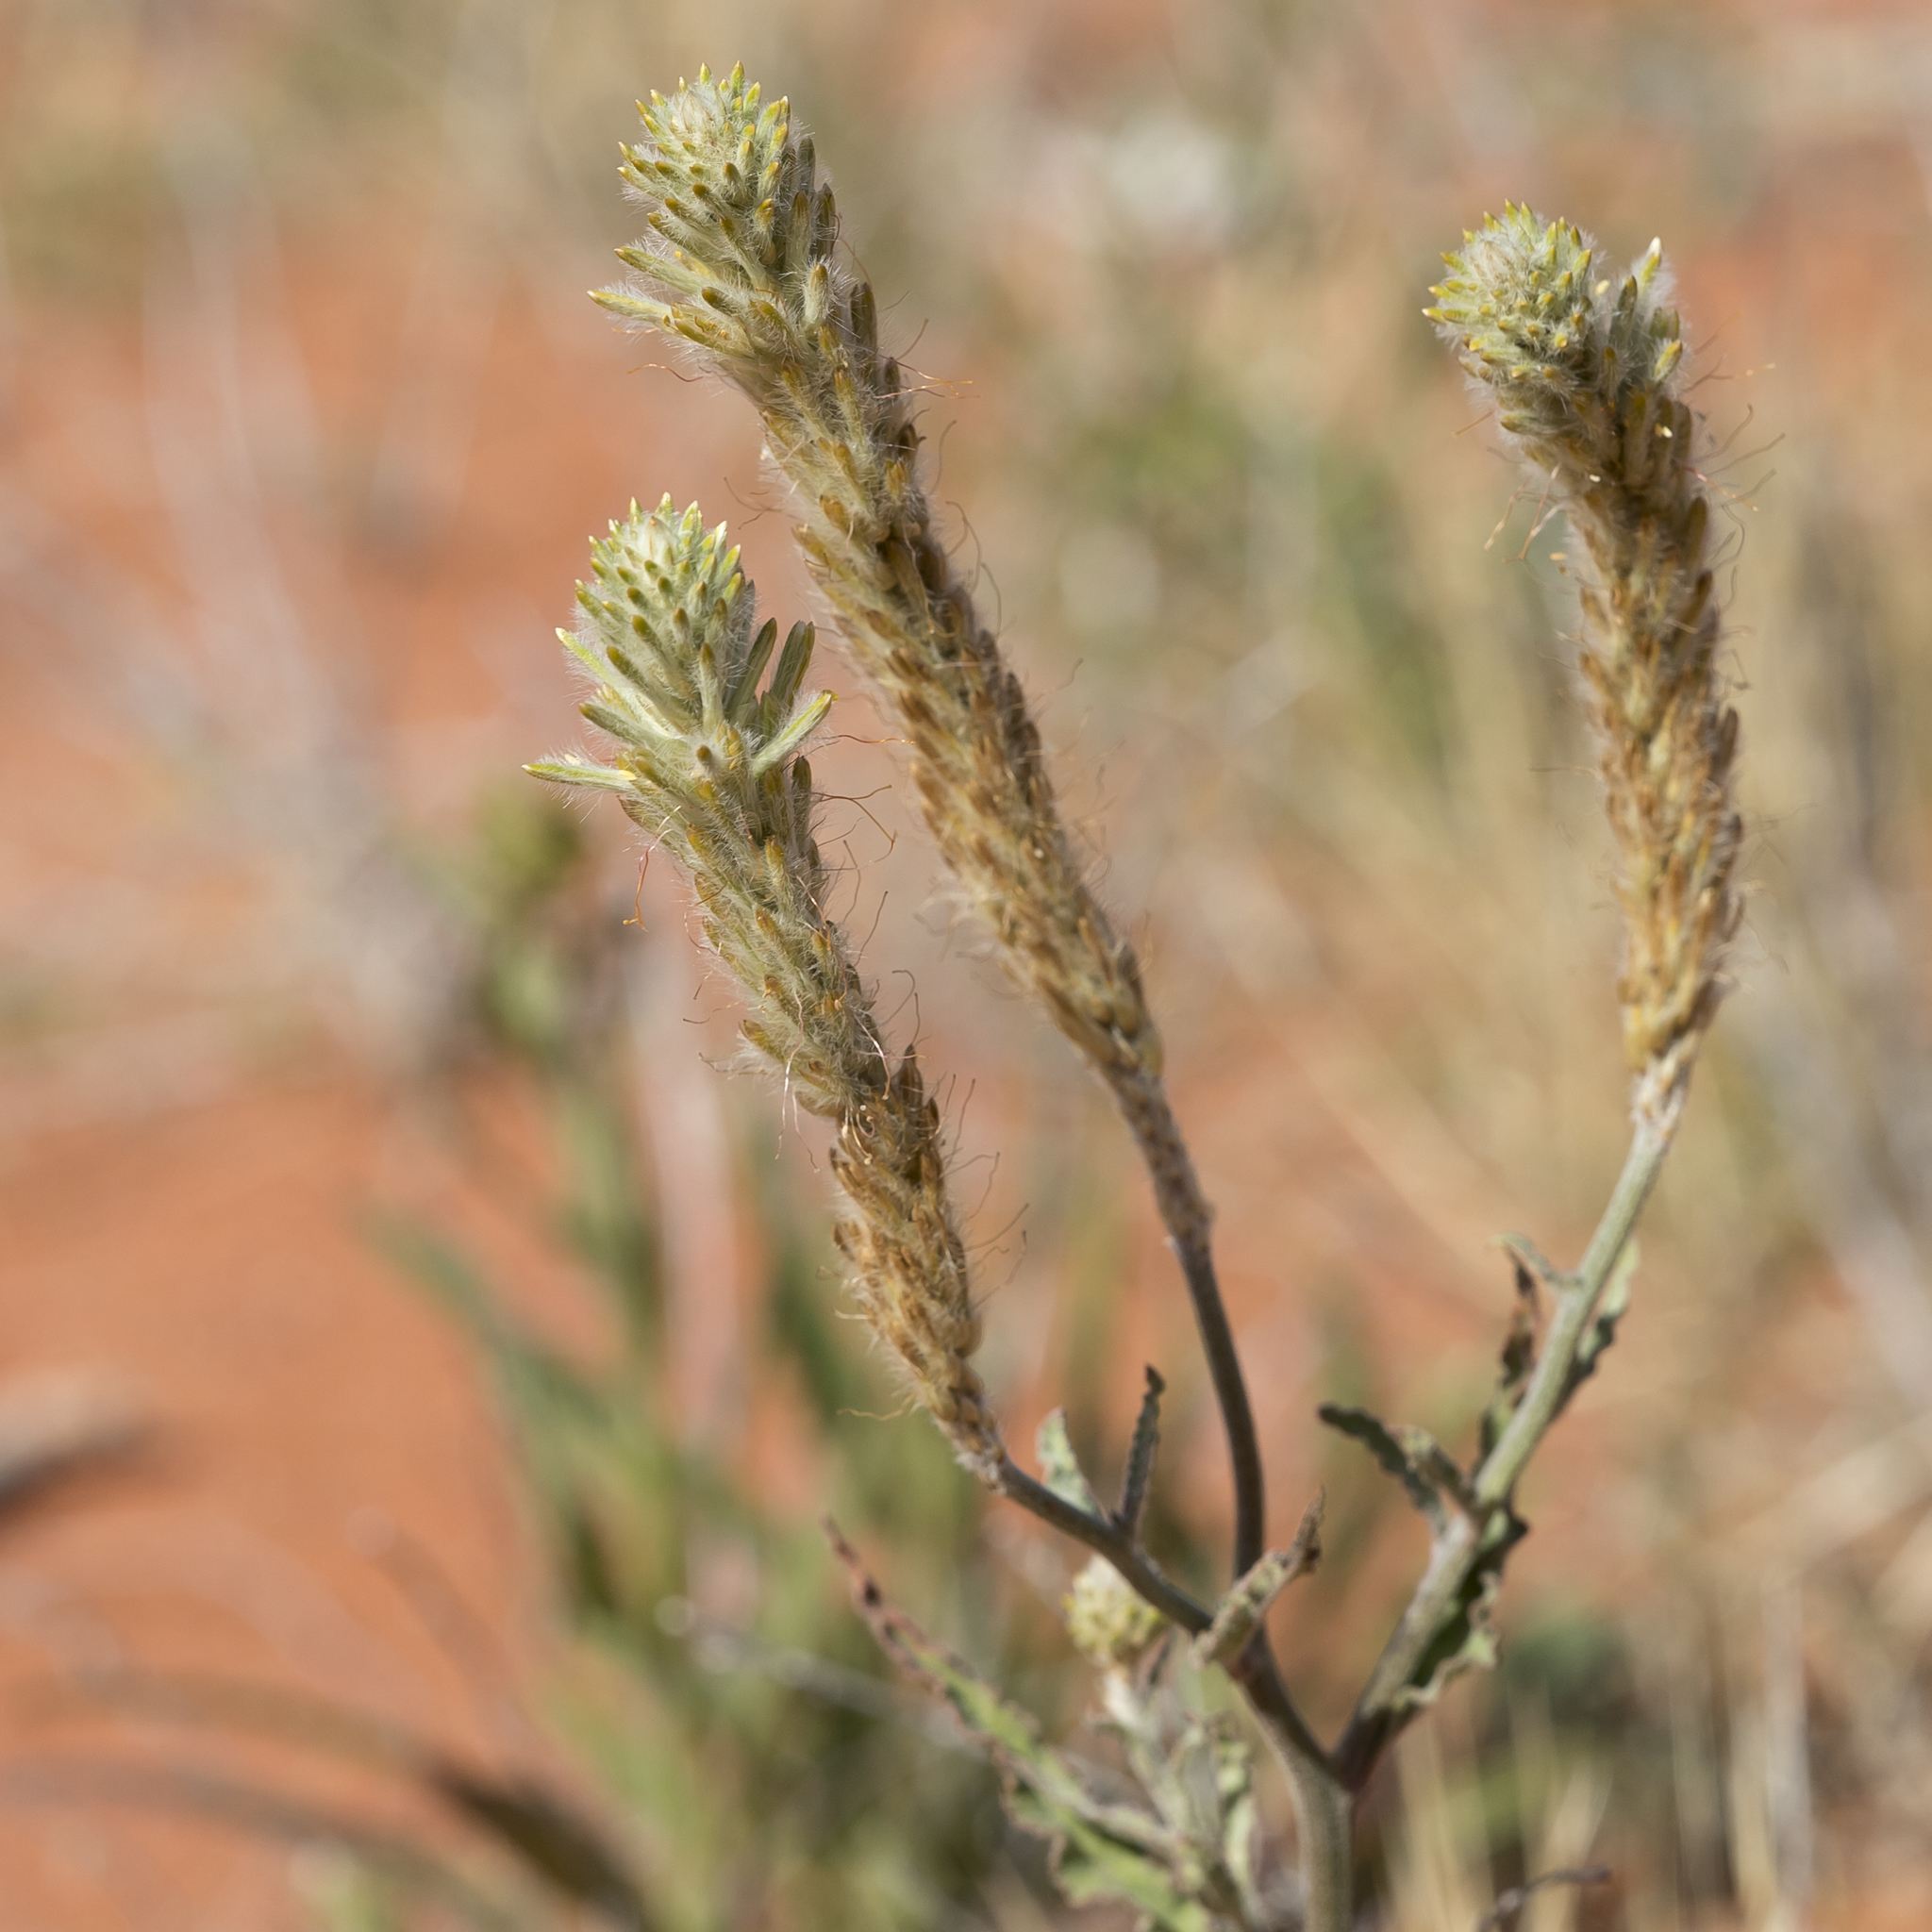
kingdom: Plantae
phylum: Tracheophyta
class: Magnoliopsida
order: Caryophyllales
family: Amaranthaceae
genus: Ptilotus
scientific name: Ptilotus polystachyus
